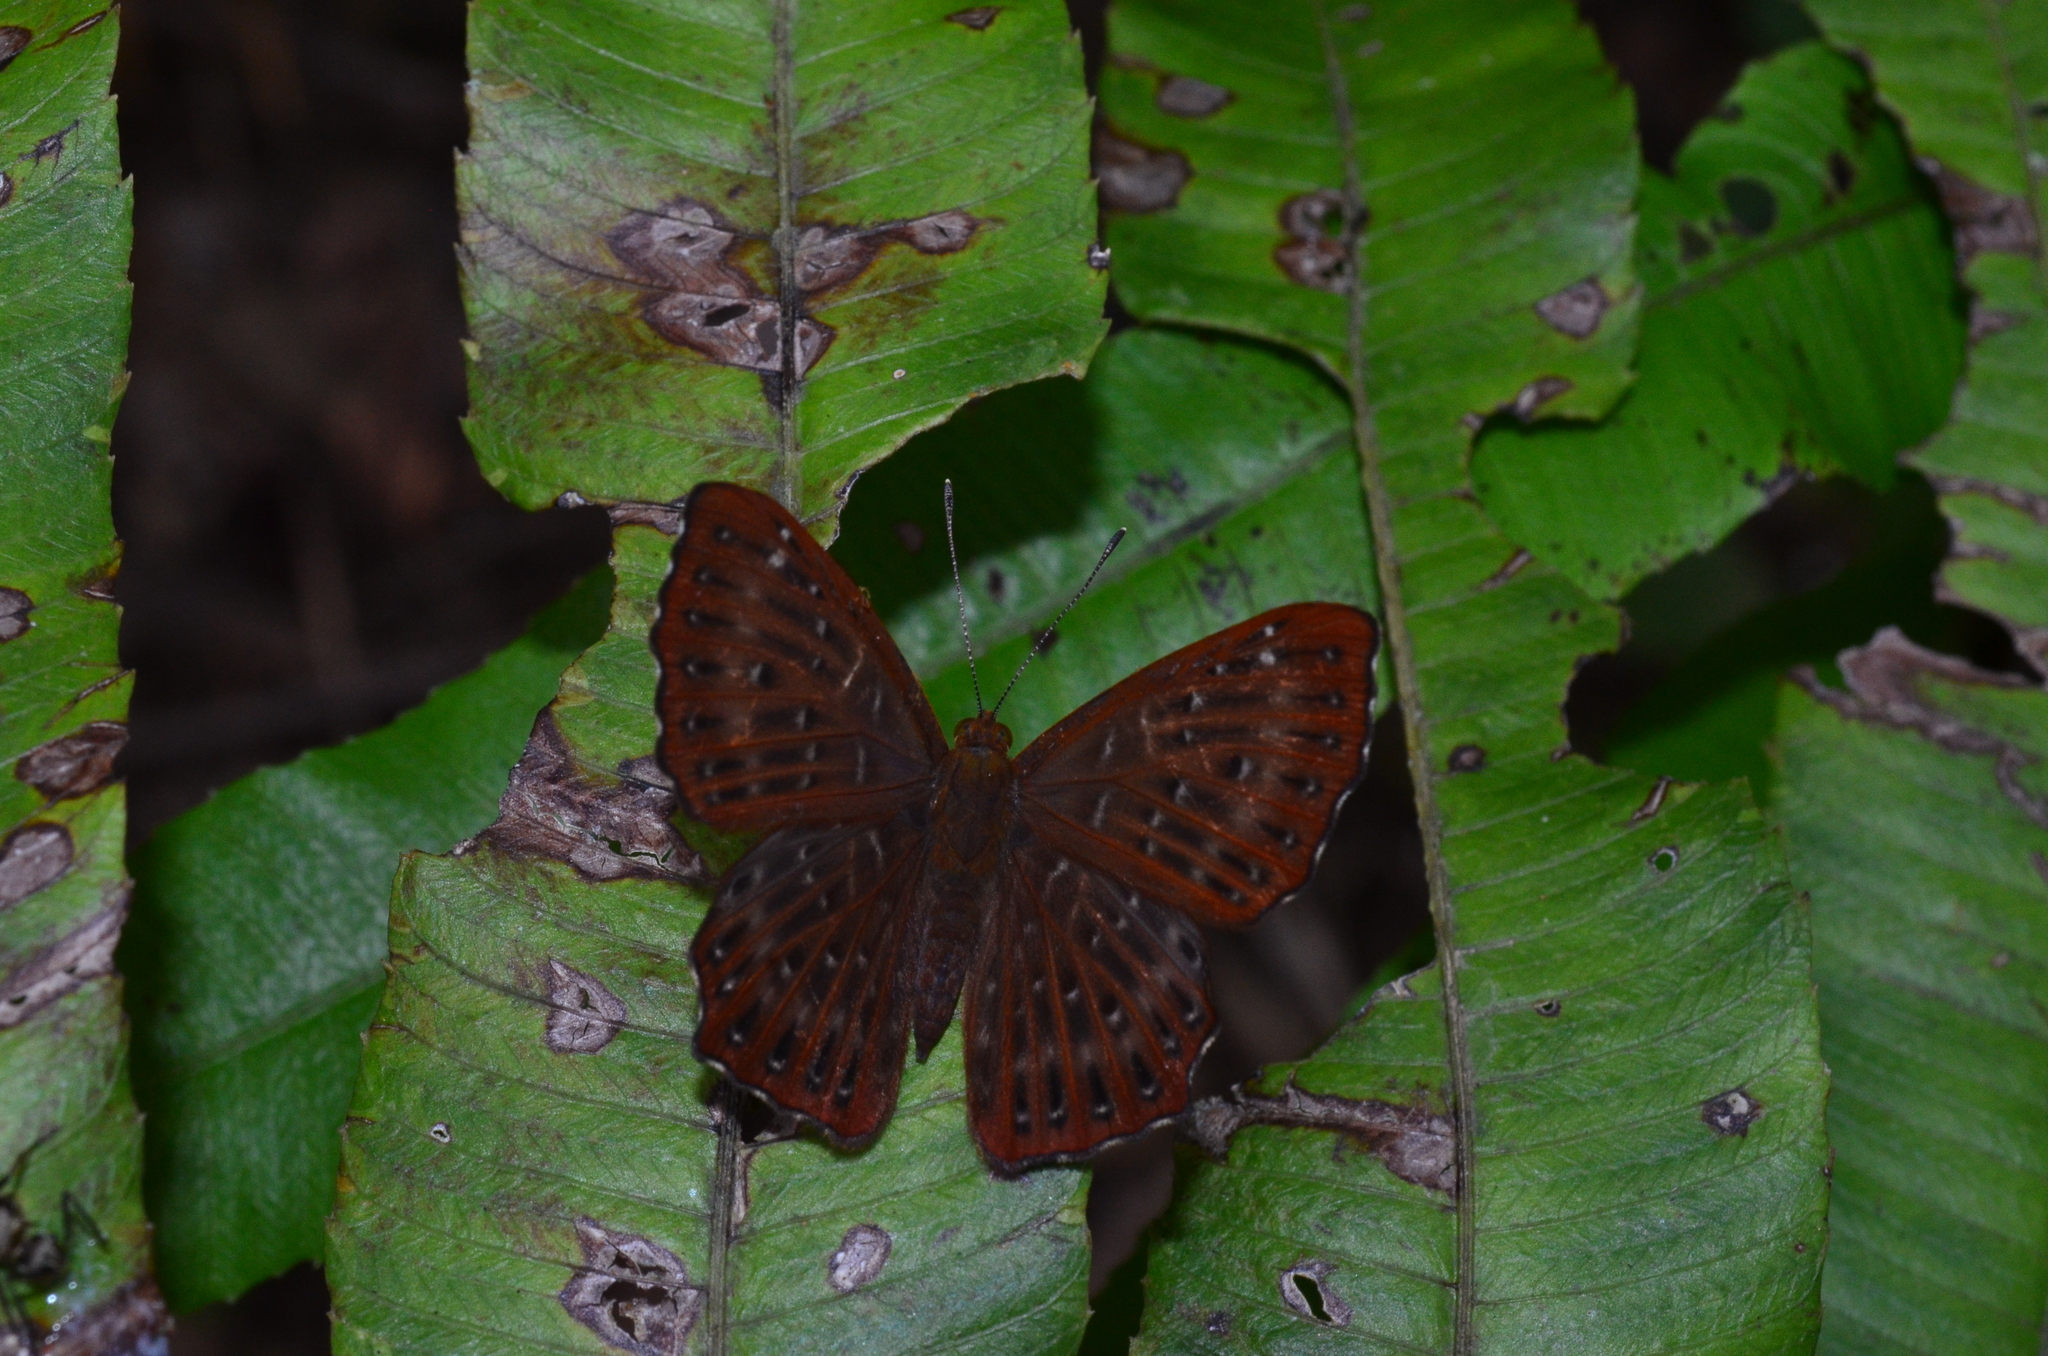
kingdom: Animalia
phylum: Arthropoda
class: Insecta
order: Lepidoptera
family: Riodinidae
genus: Zemeros
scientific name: Zemeros flegyas
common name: Punchinello
